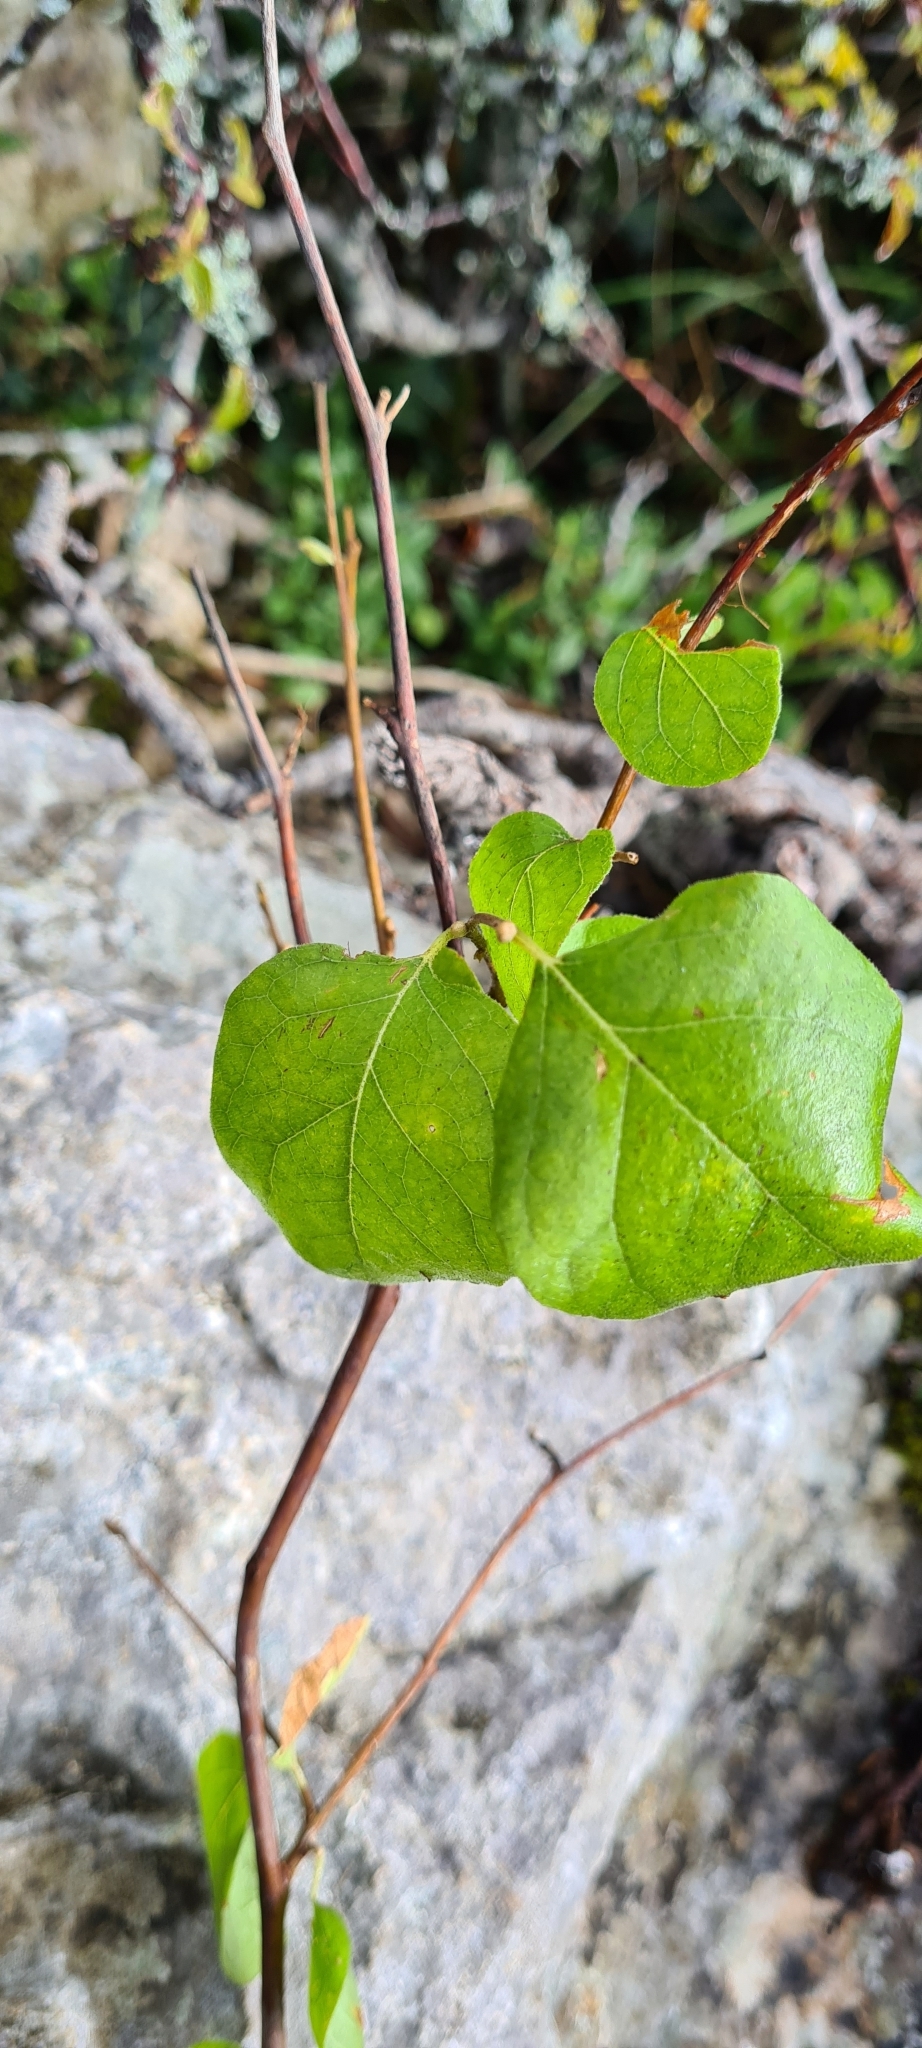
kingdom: Plantae
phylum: Tracheophyta
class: Magnoliopsida
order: Ericales
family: Styracaceae
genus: Styrax
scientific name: Styrax officinalis
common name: Storax
